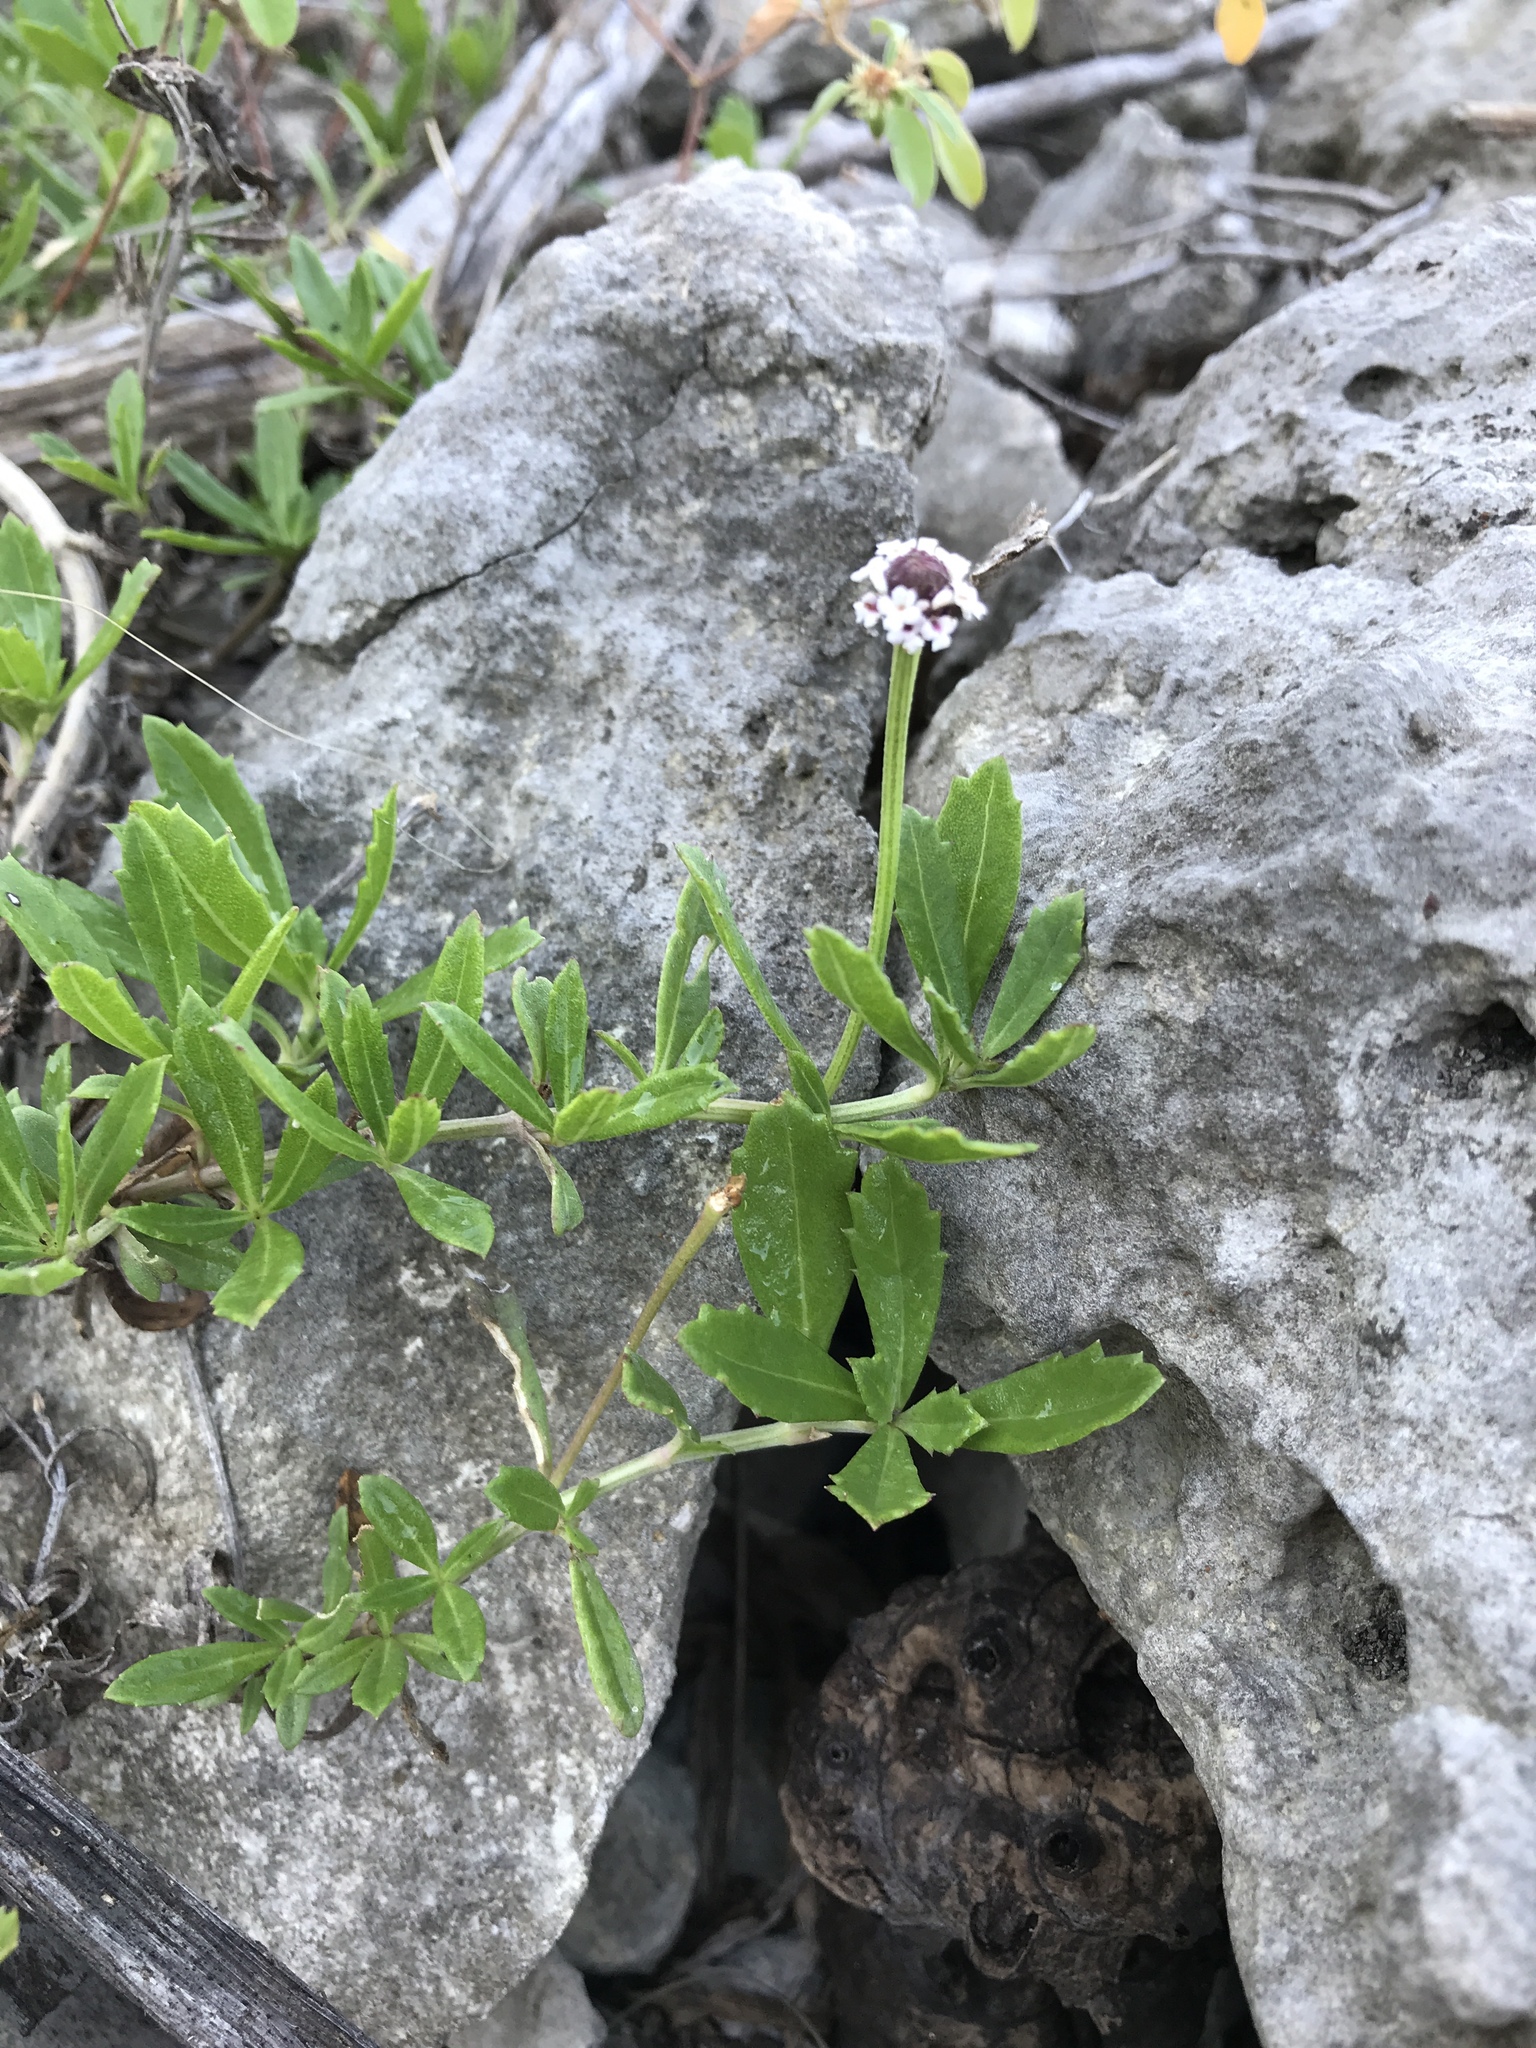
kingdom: Plantae
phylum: Tracheophyta
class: Magnoliopsida
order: Lamiales
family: Verbenaceae
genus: Phyla
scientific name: Phyla nodiflora
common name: Frogfruit
